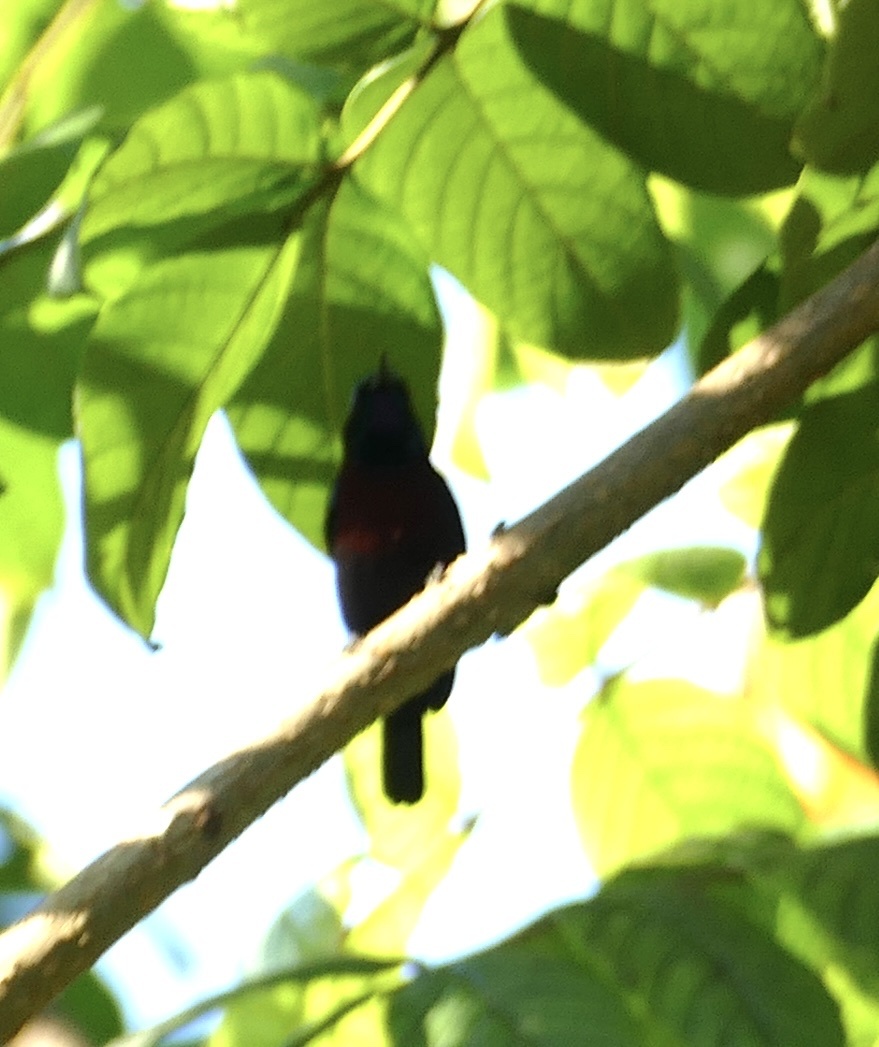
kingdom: Animalia
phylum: Chordata
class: Aves
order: Passeriformes
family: Nectariniidae
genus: Leptocoma
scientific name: Leptocoma sericea
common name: Black sunbird
